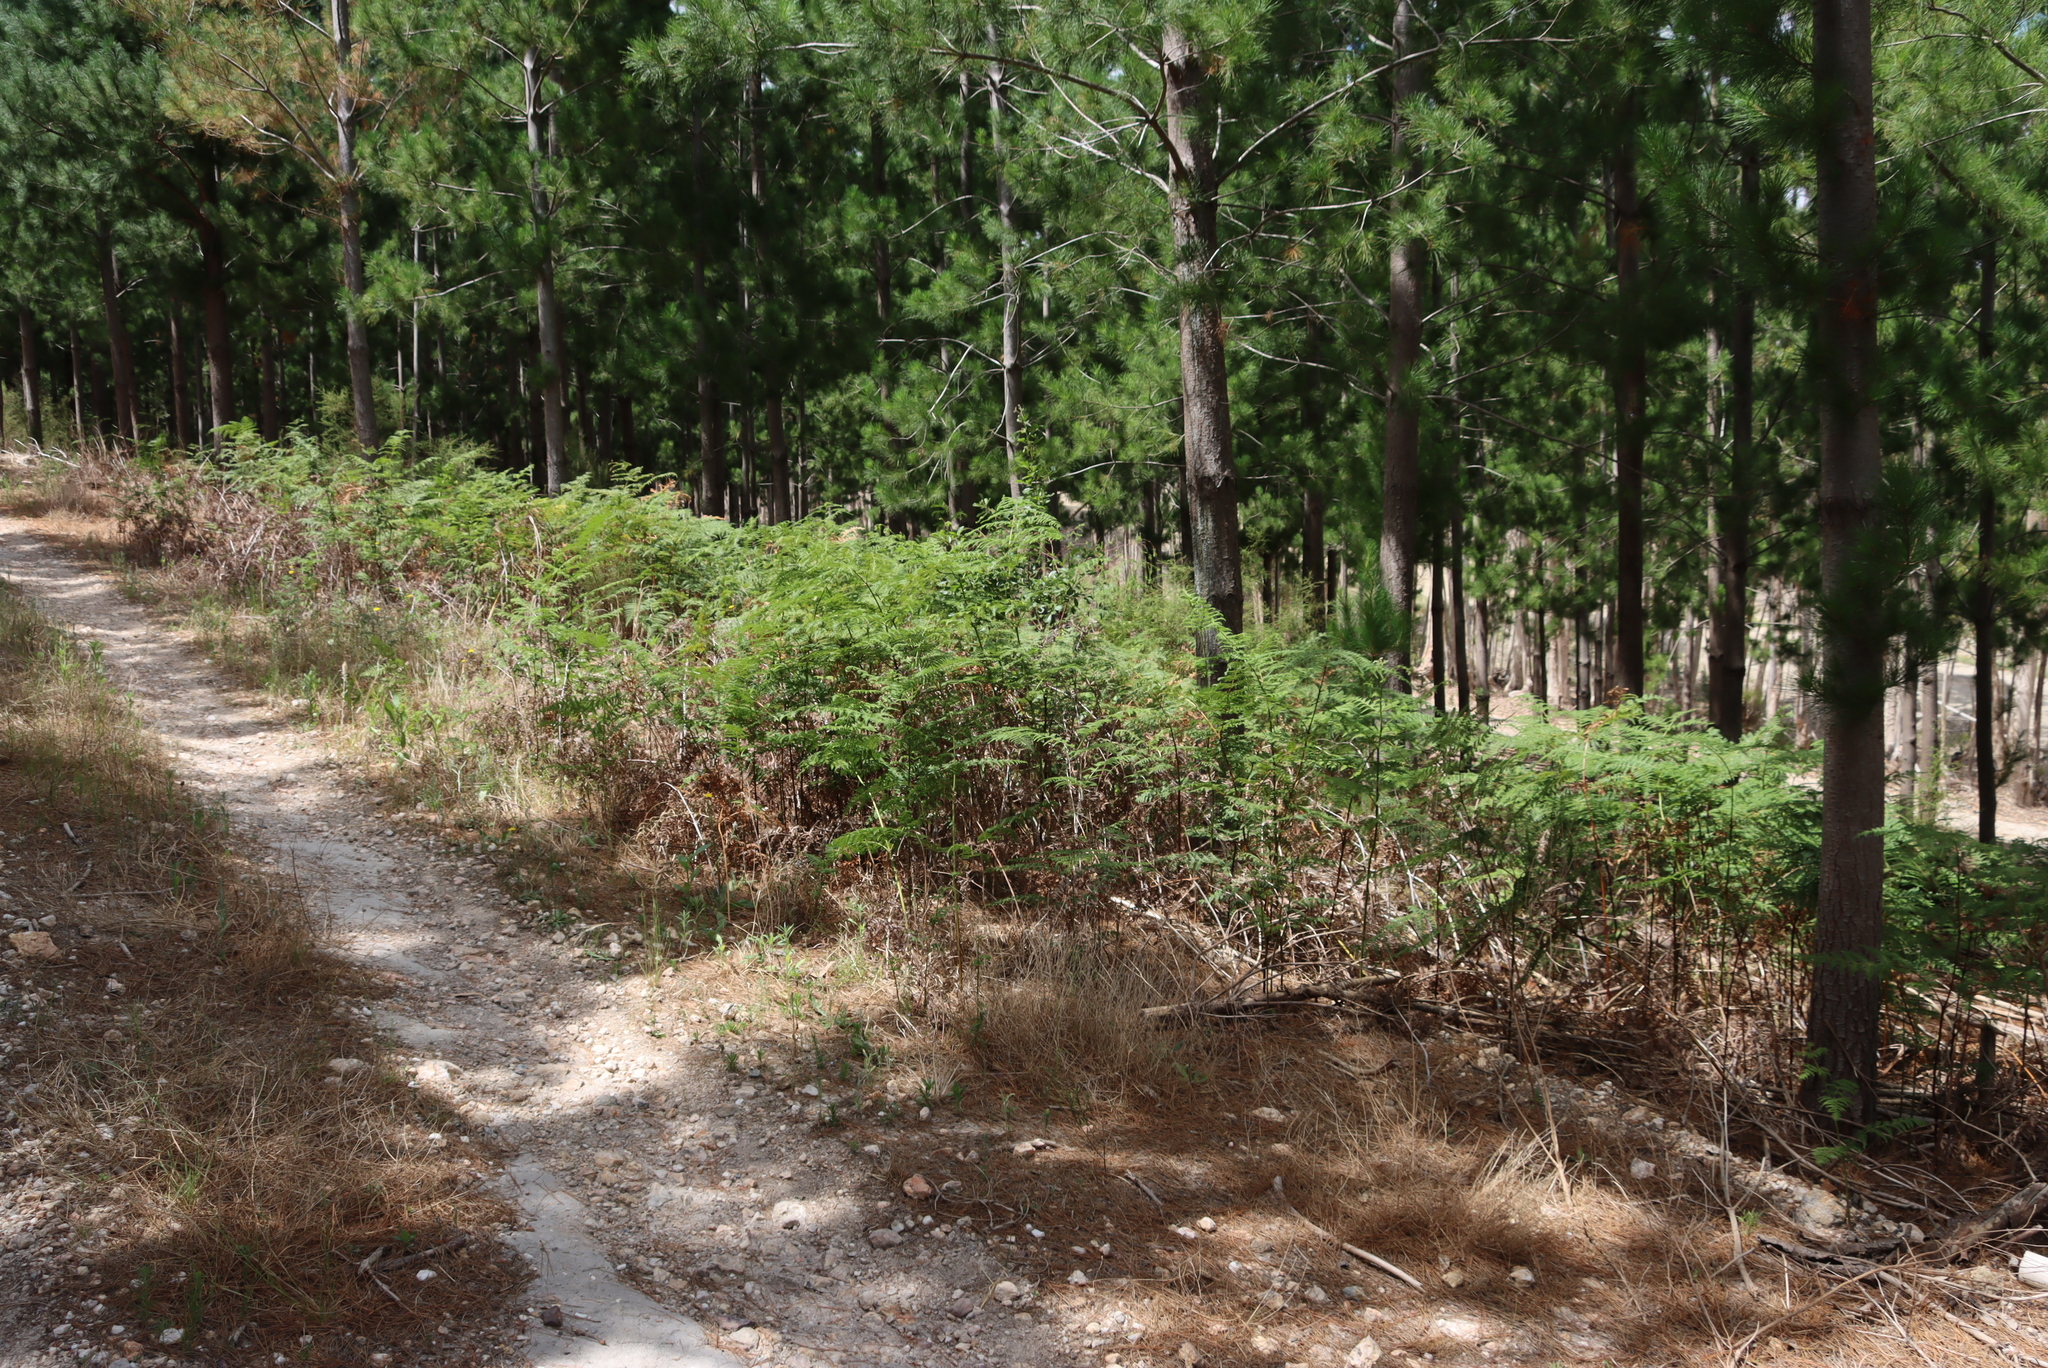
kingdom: Plantae
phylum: Tracheophyta
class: Polypodiopsida
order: Polypodiales
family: Dennstaedtiaceae
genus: Pteridium
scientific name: Pteridium aquilinum
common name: Bracken
